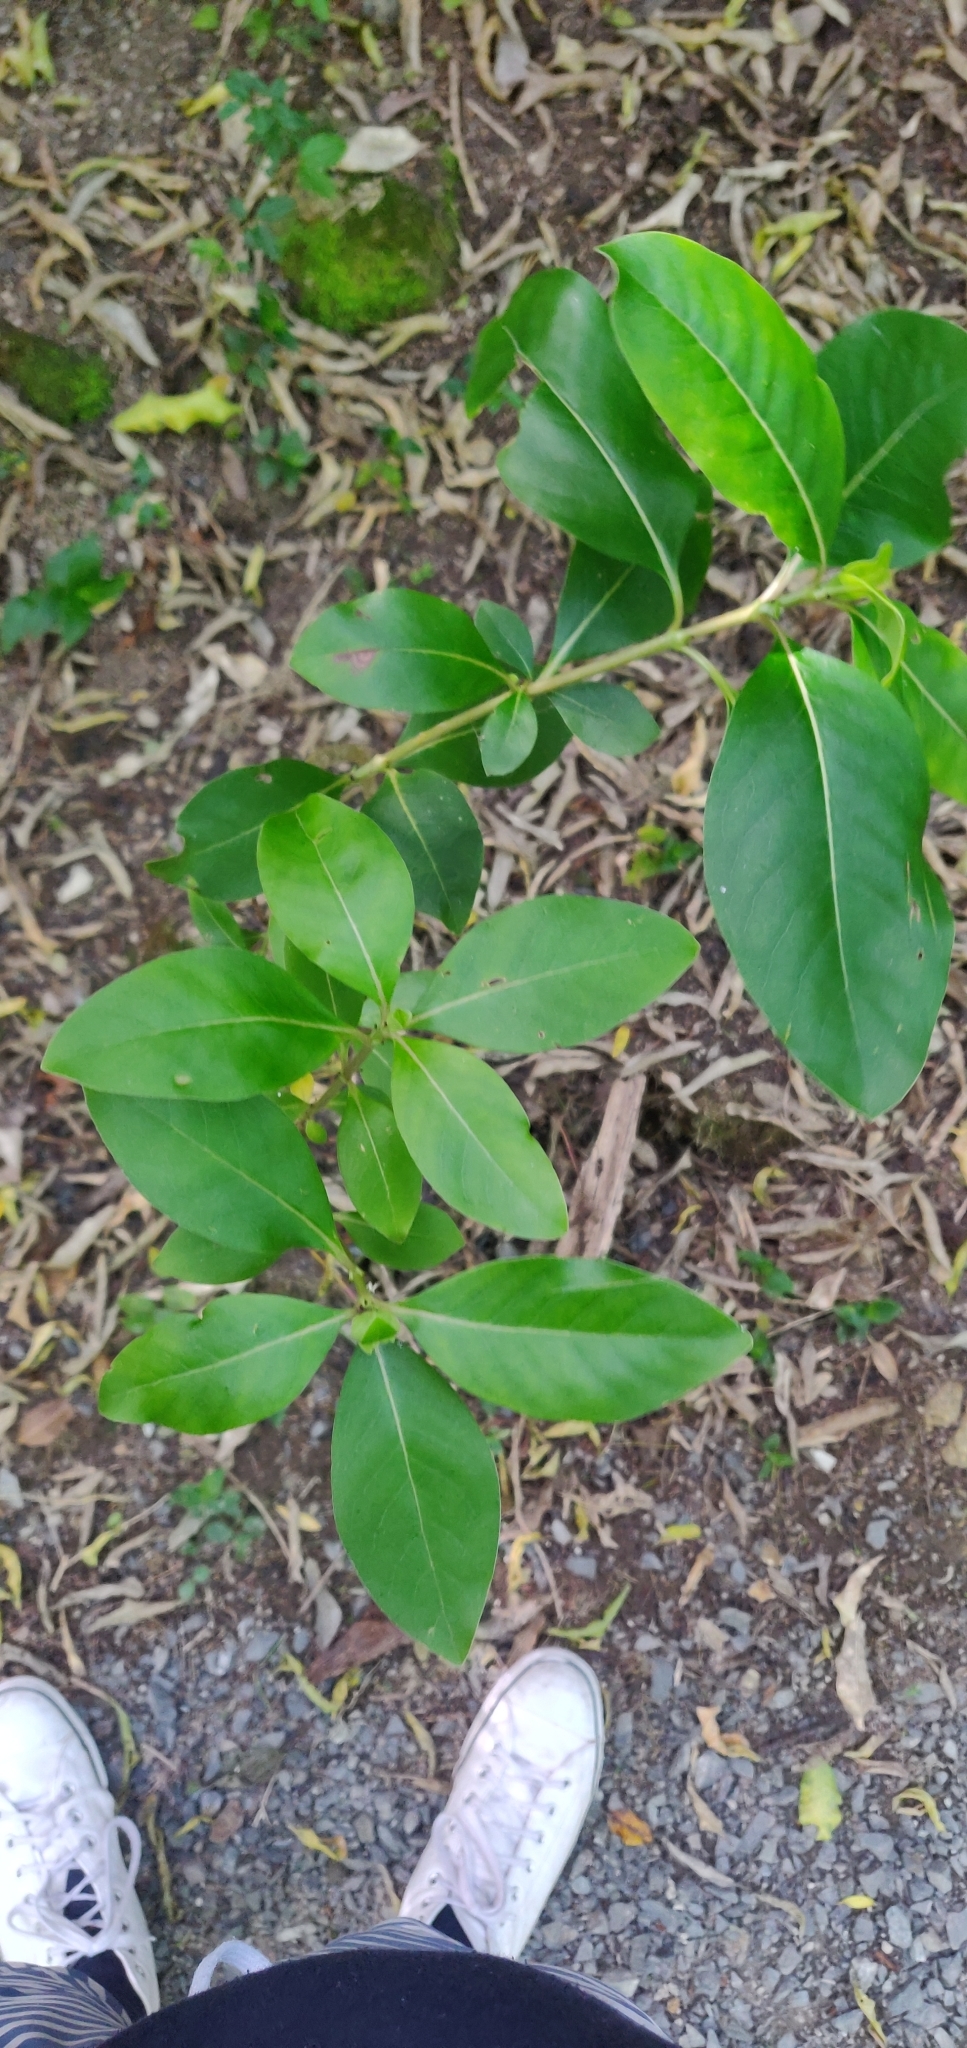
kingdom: Plantae
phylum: Tracheophyta
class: Magnoliopsida
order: Gentianales
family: Rubiaceae
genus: Coprosma
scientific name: Coprosma robusta
